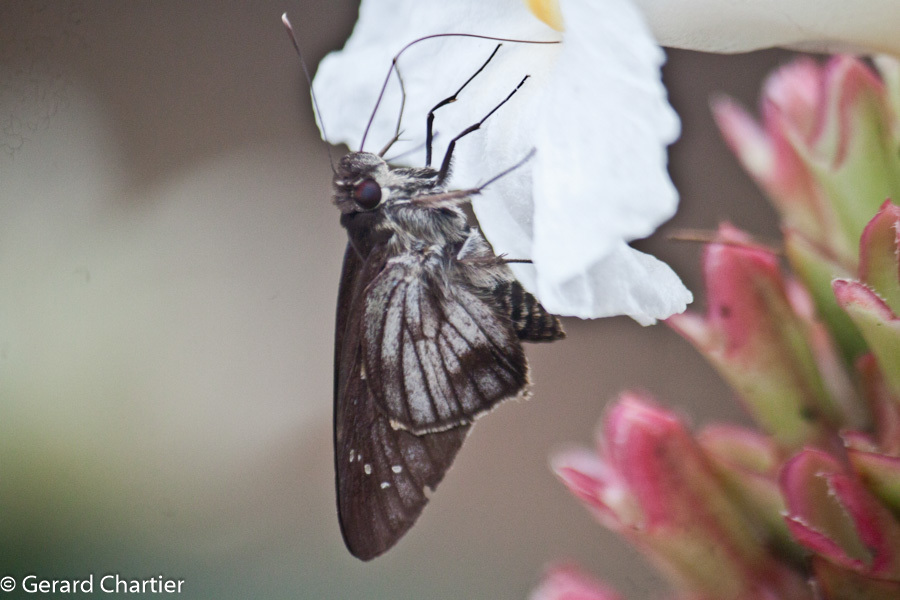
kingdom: Animalia
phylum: Arthropoda
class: Insecta
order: Lepidoptera
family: Hesperiidae
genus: Unkana
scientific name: Unkana ambasa
